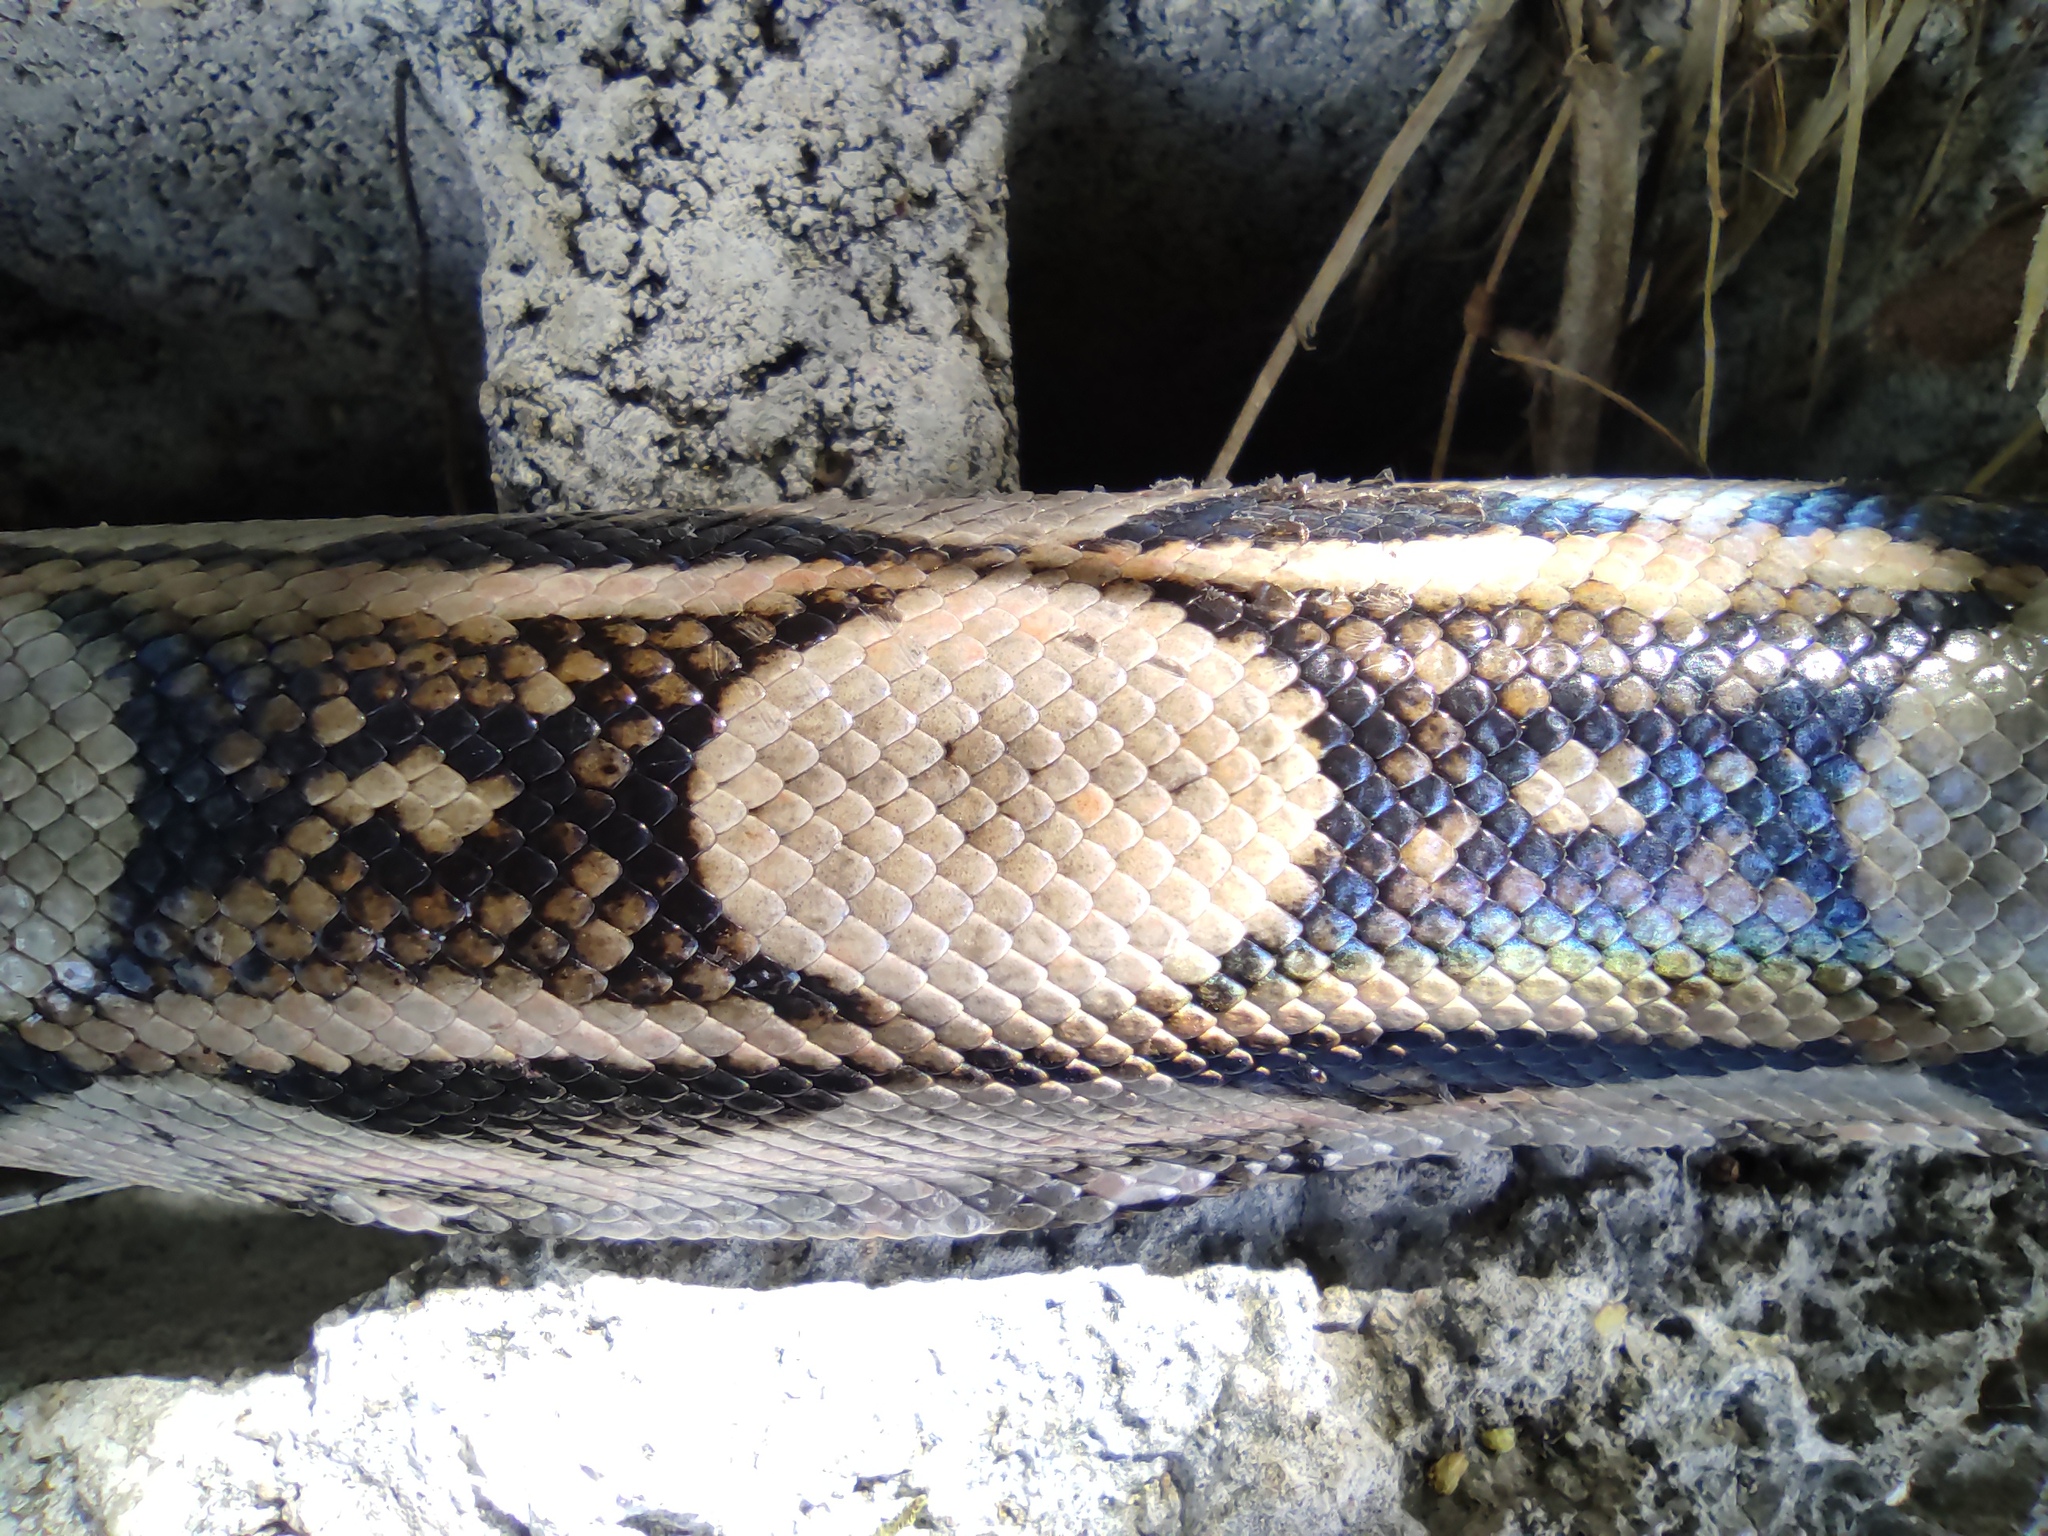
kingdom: Animalia
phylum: Chordata
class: Squamata
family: Boidae
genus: Boa
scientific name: Boa imperator
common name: Central american boa
